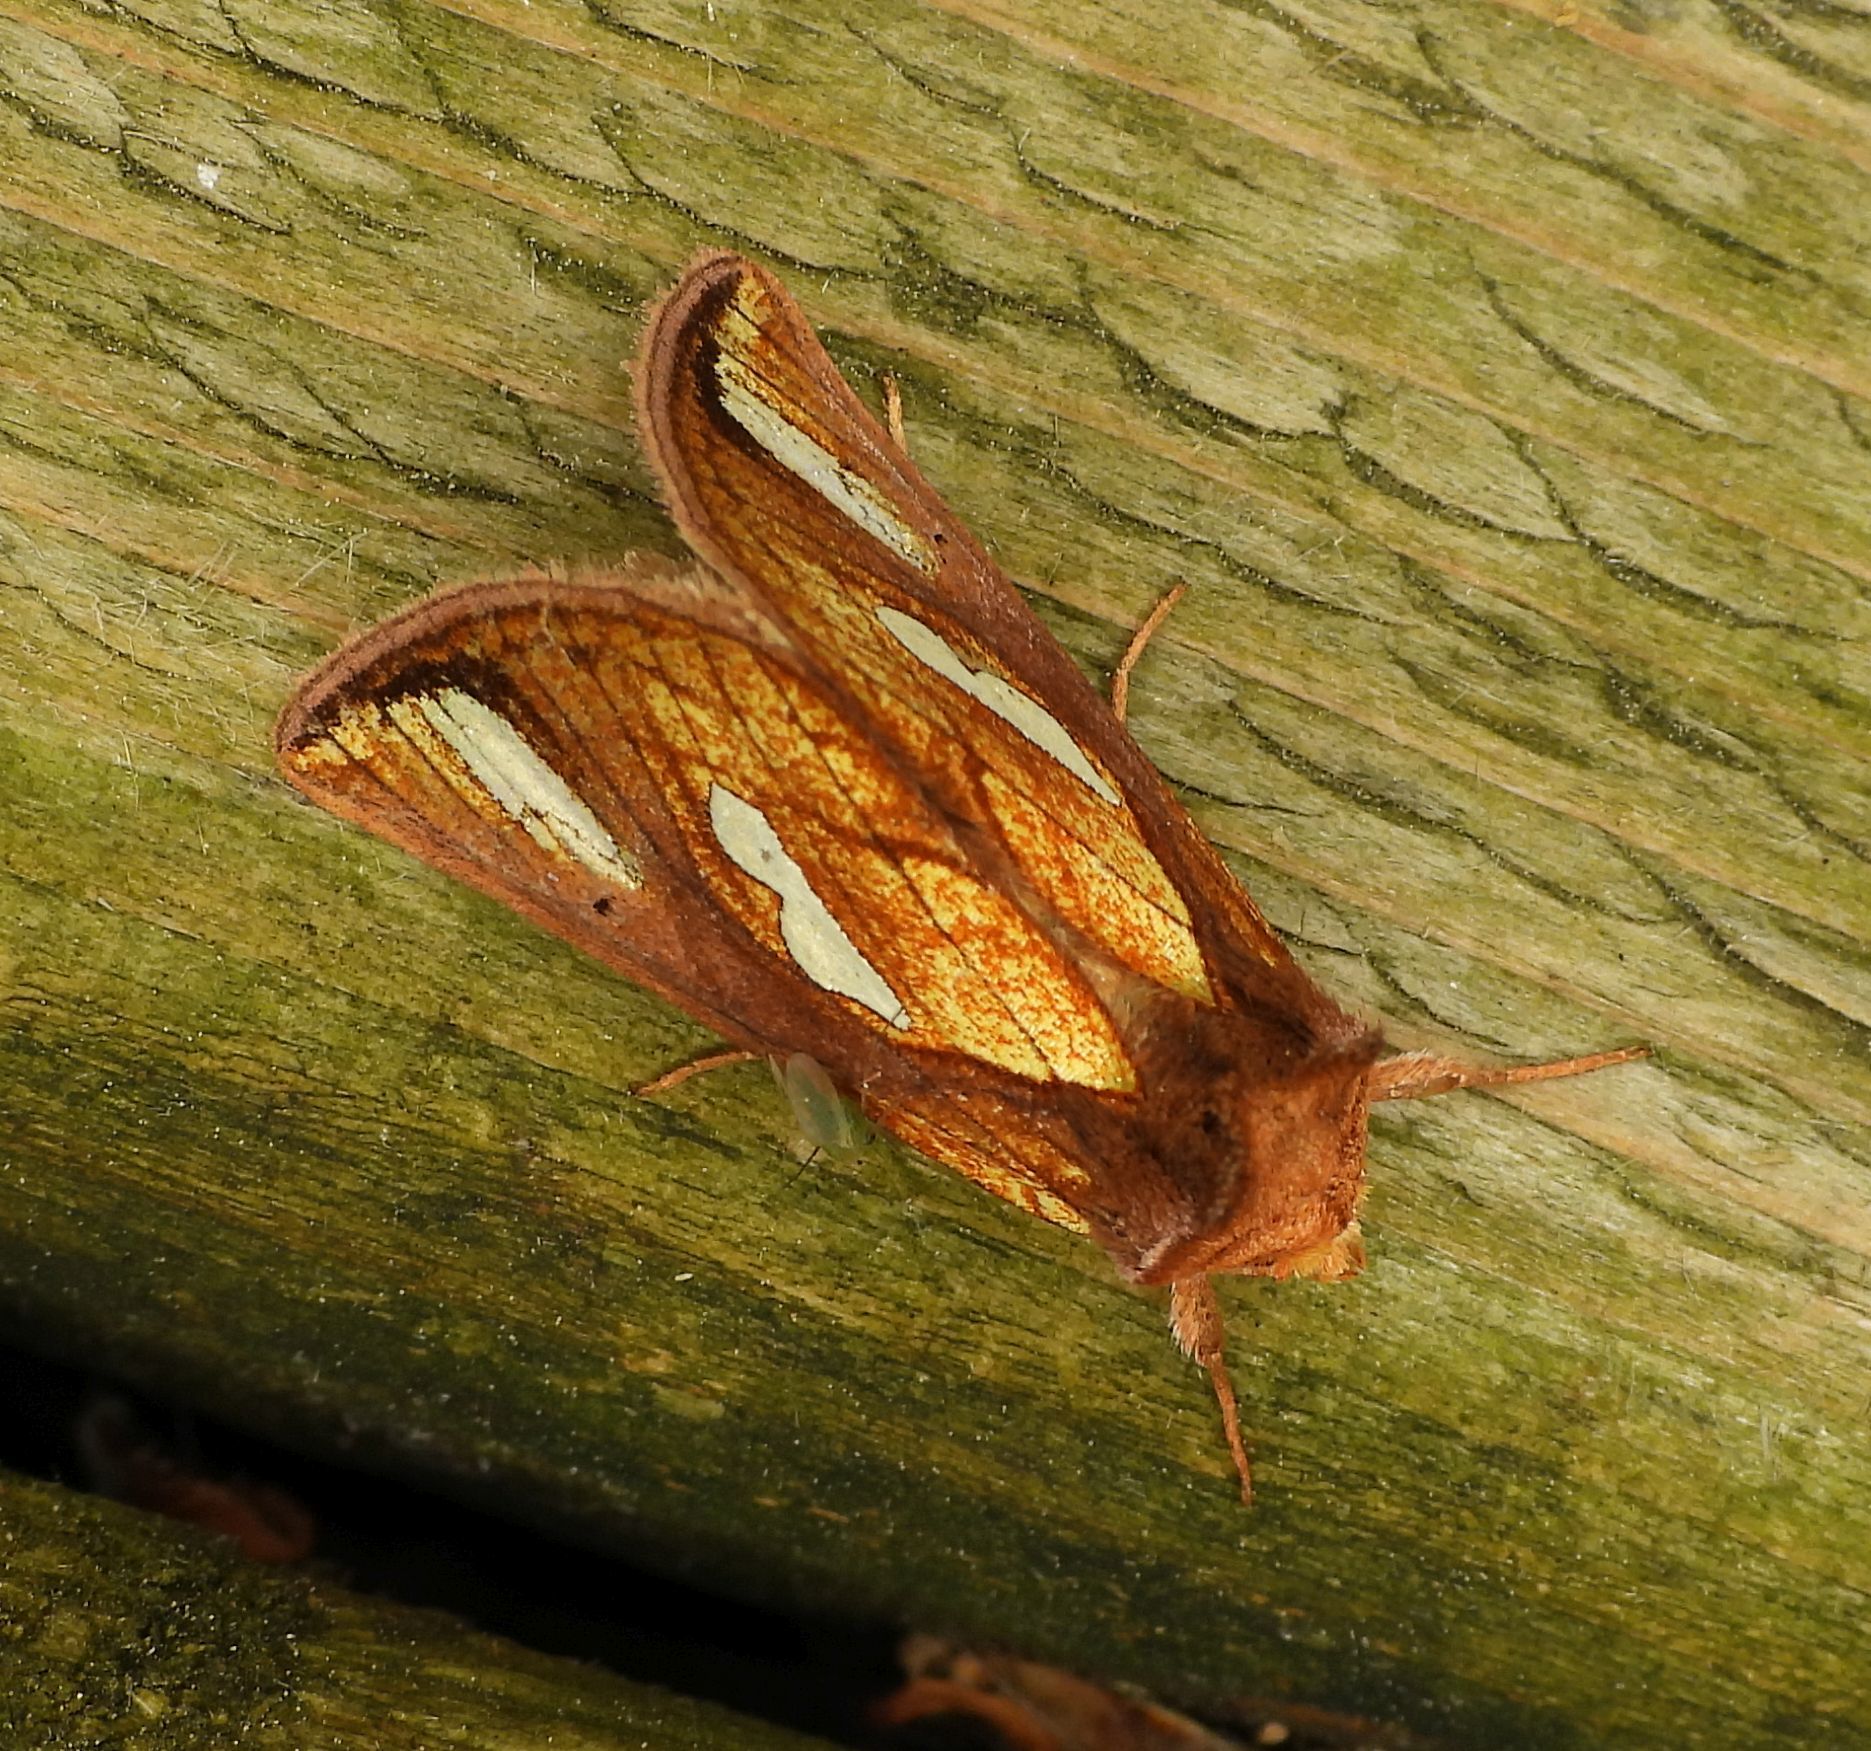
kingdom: Animalia
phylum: Arthropoda
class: Insecta
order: Lepidoptera
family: Noctuidae
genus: Plusia
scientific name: Plusia contexta
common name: Connected looper moth
